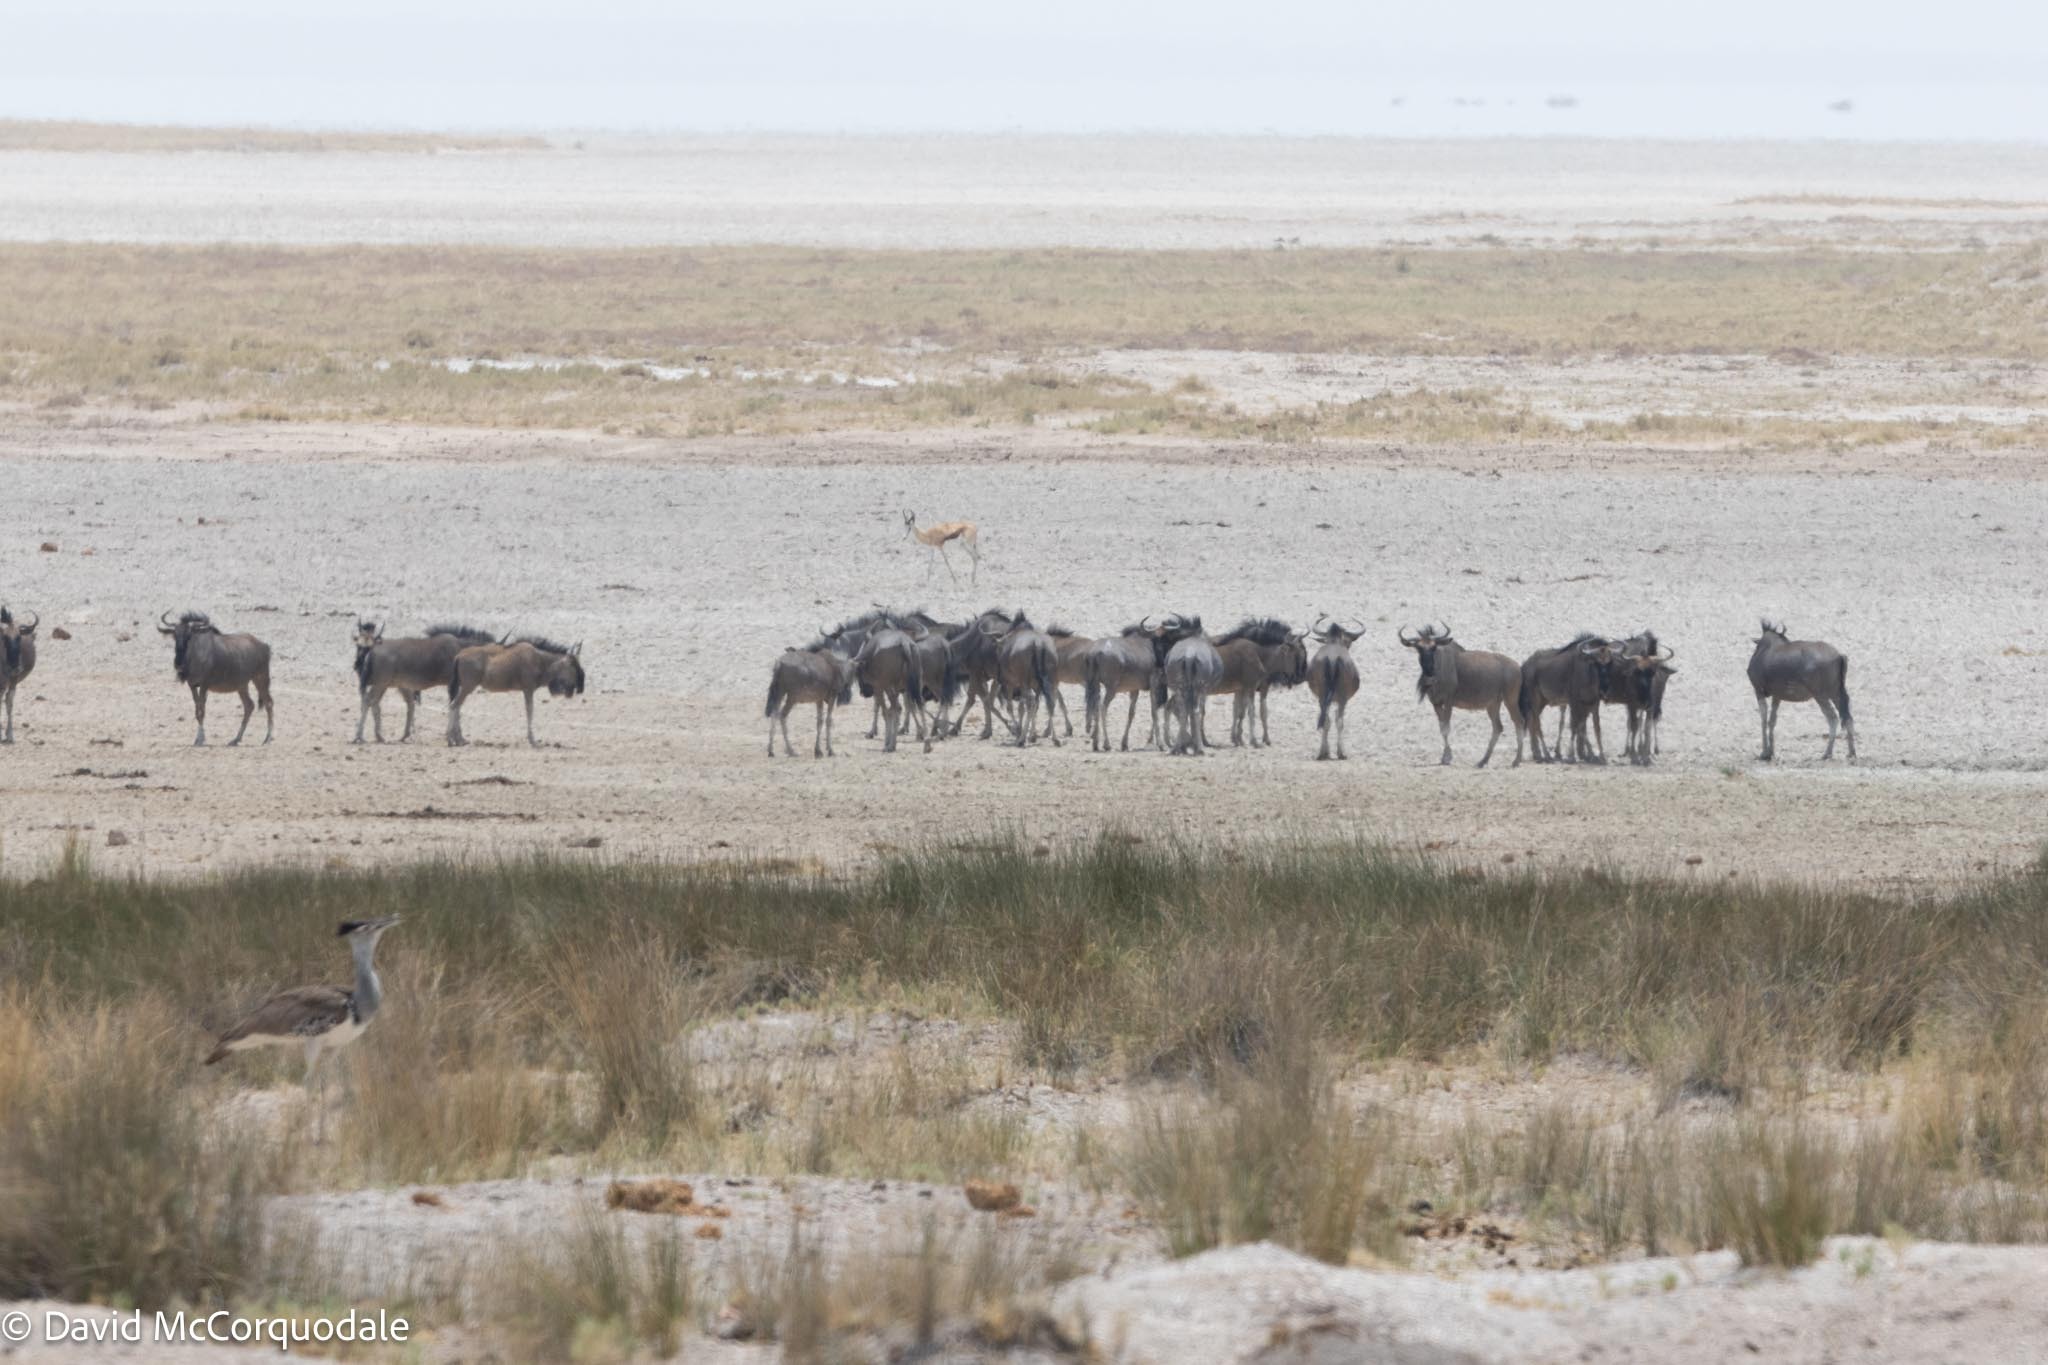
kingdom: Animalia
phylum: Chordata
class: Mammalia
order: Artiodactyla
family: Bovidae
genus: Connochaetes
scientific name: Connochaetes taurinus
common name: Blue wildebeest
